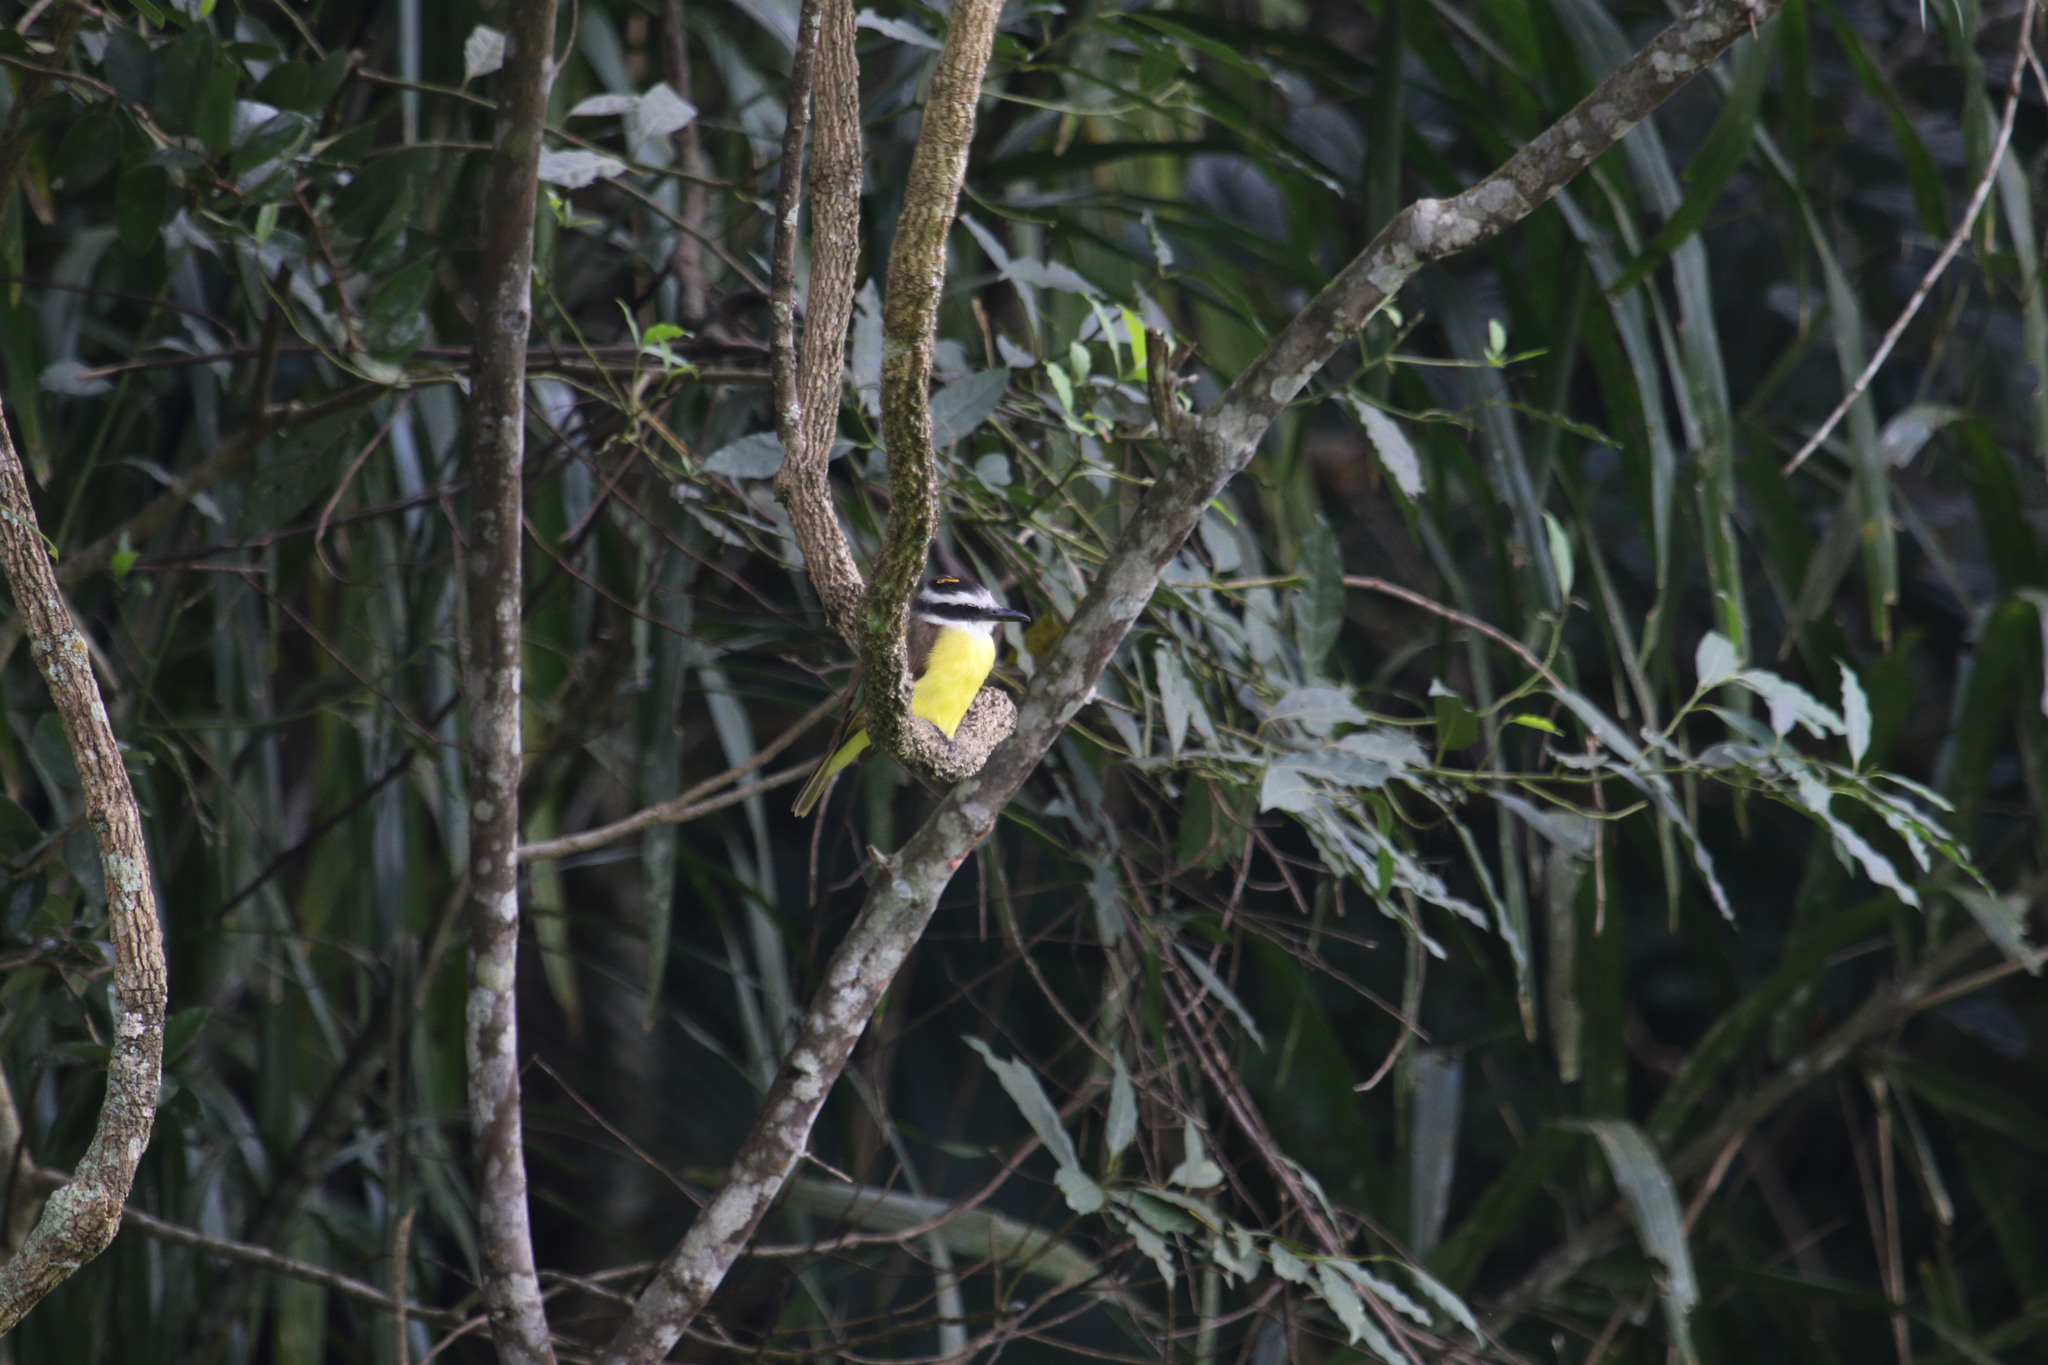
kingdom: Animalia
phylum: Chordata
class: Aves
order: Passeriformes
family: Tyrannidae
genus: Pitangus
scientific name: Pitangus sulphuratus
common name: Great kiskadee
